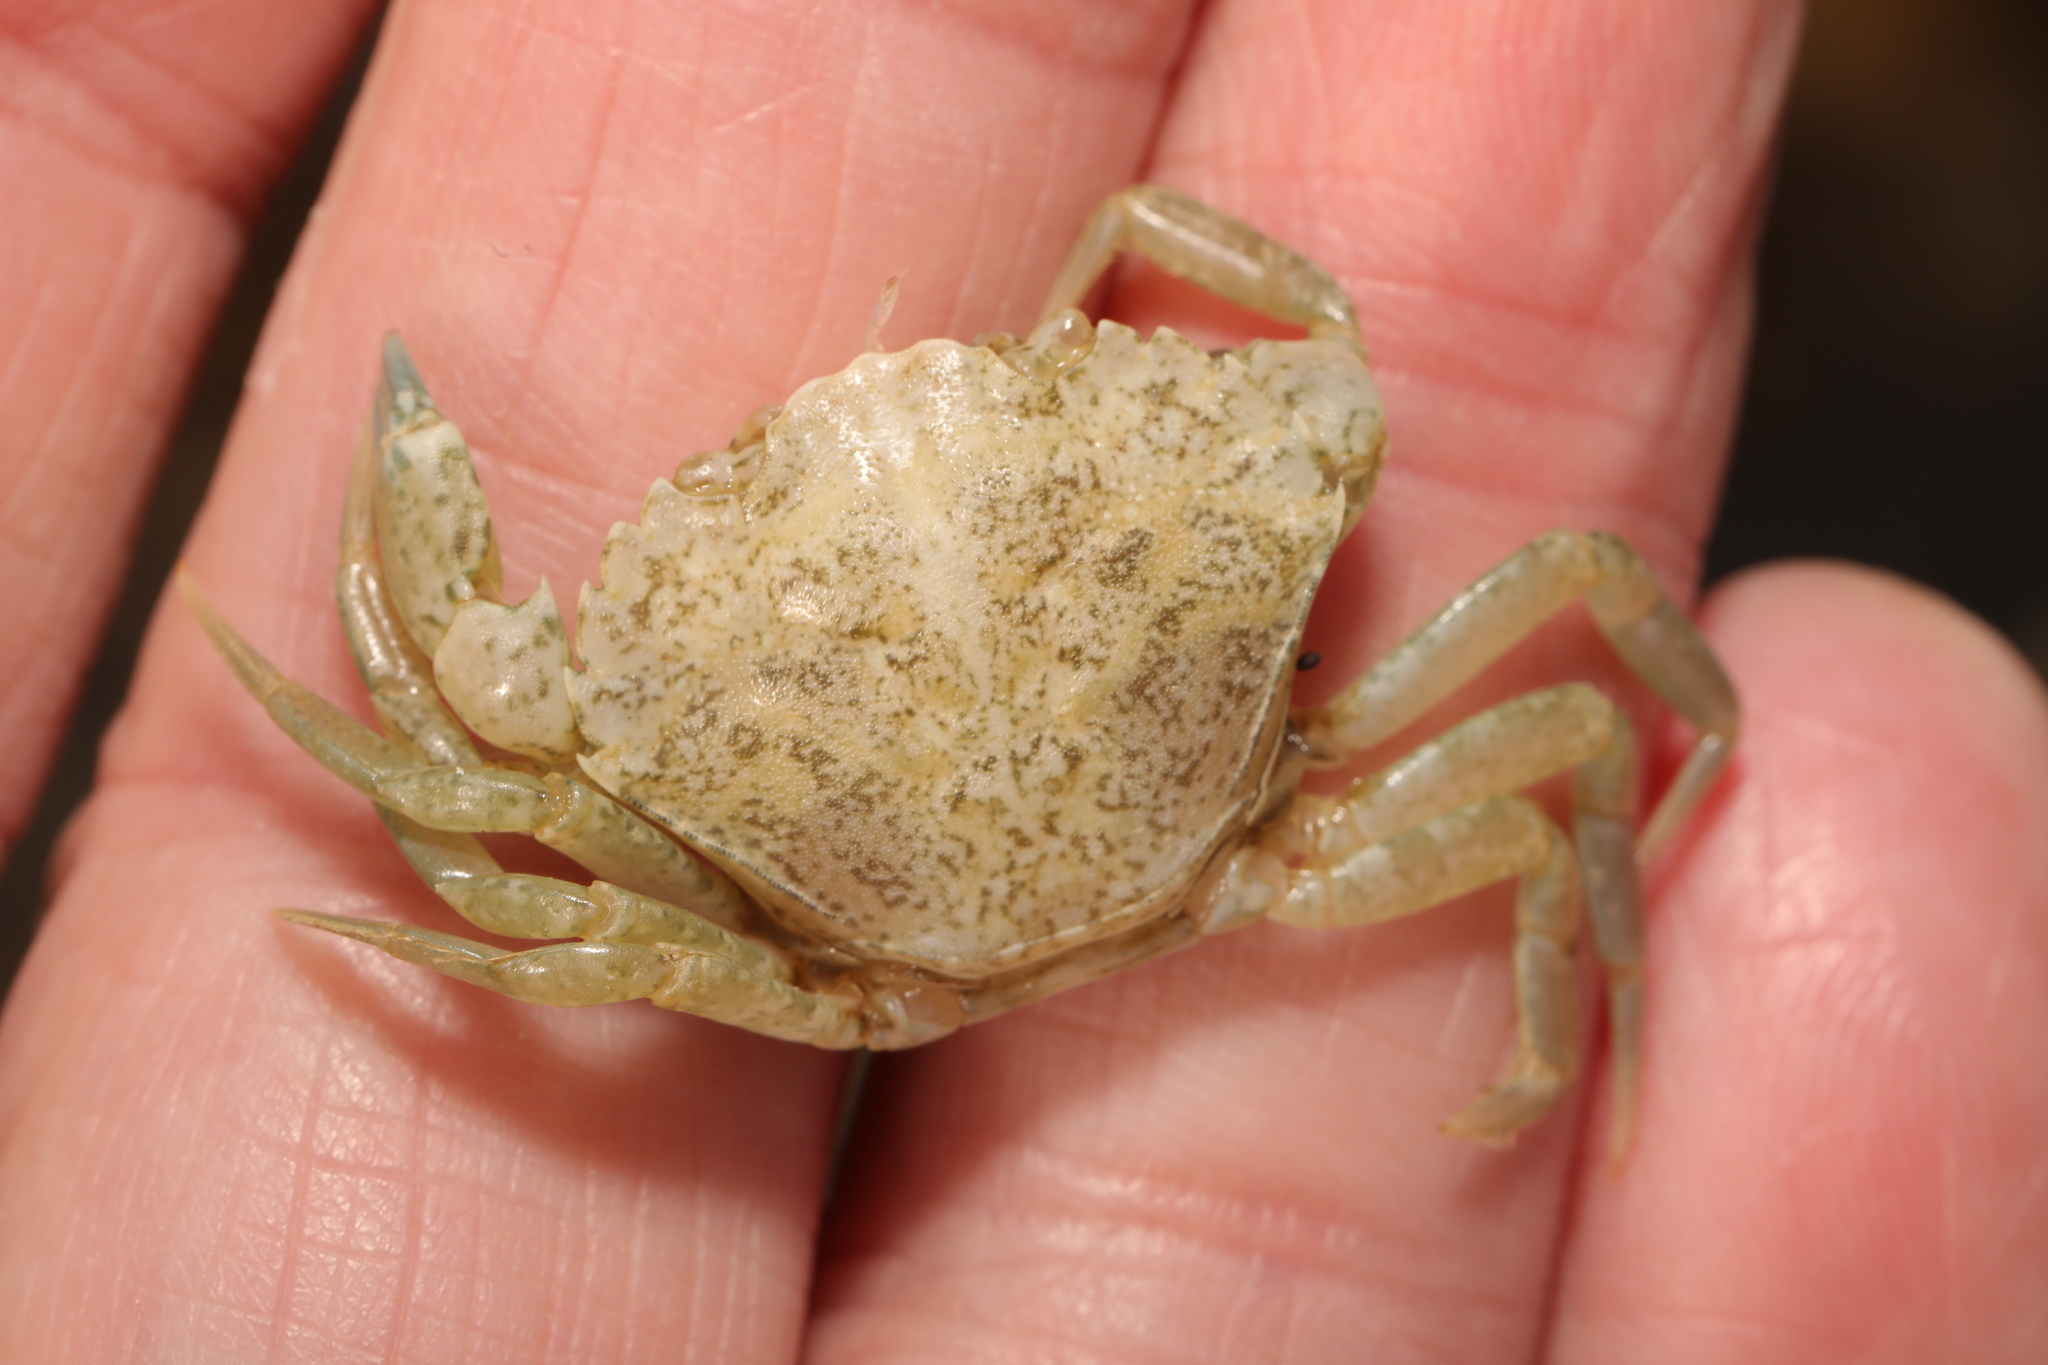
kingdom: Animalia
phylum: Arthropoda
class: Malacostraca
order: Decapoda
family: Carcinidae
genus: Carcinus
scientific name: Carcinus maenas
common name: European green crab
